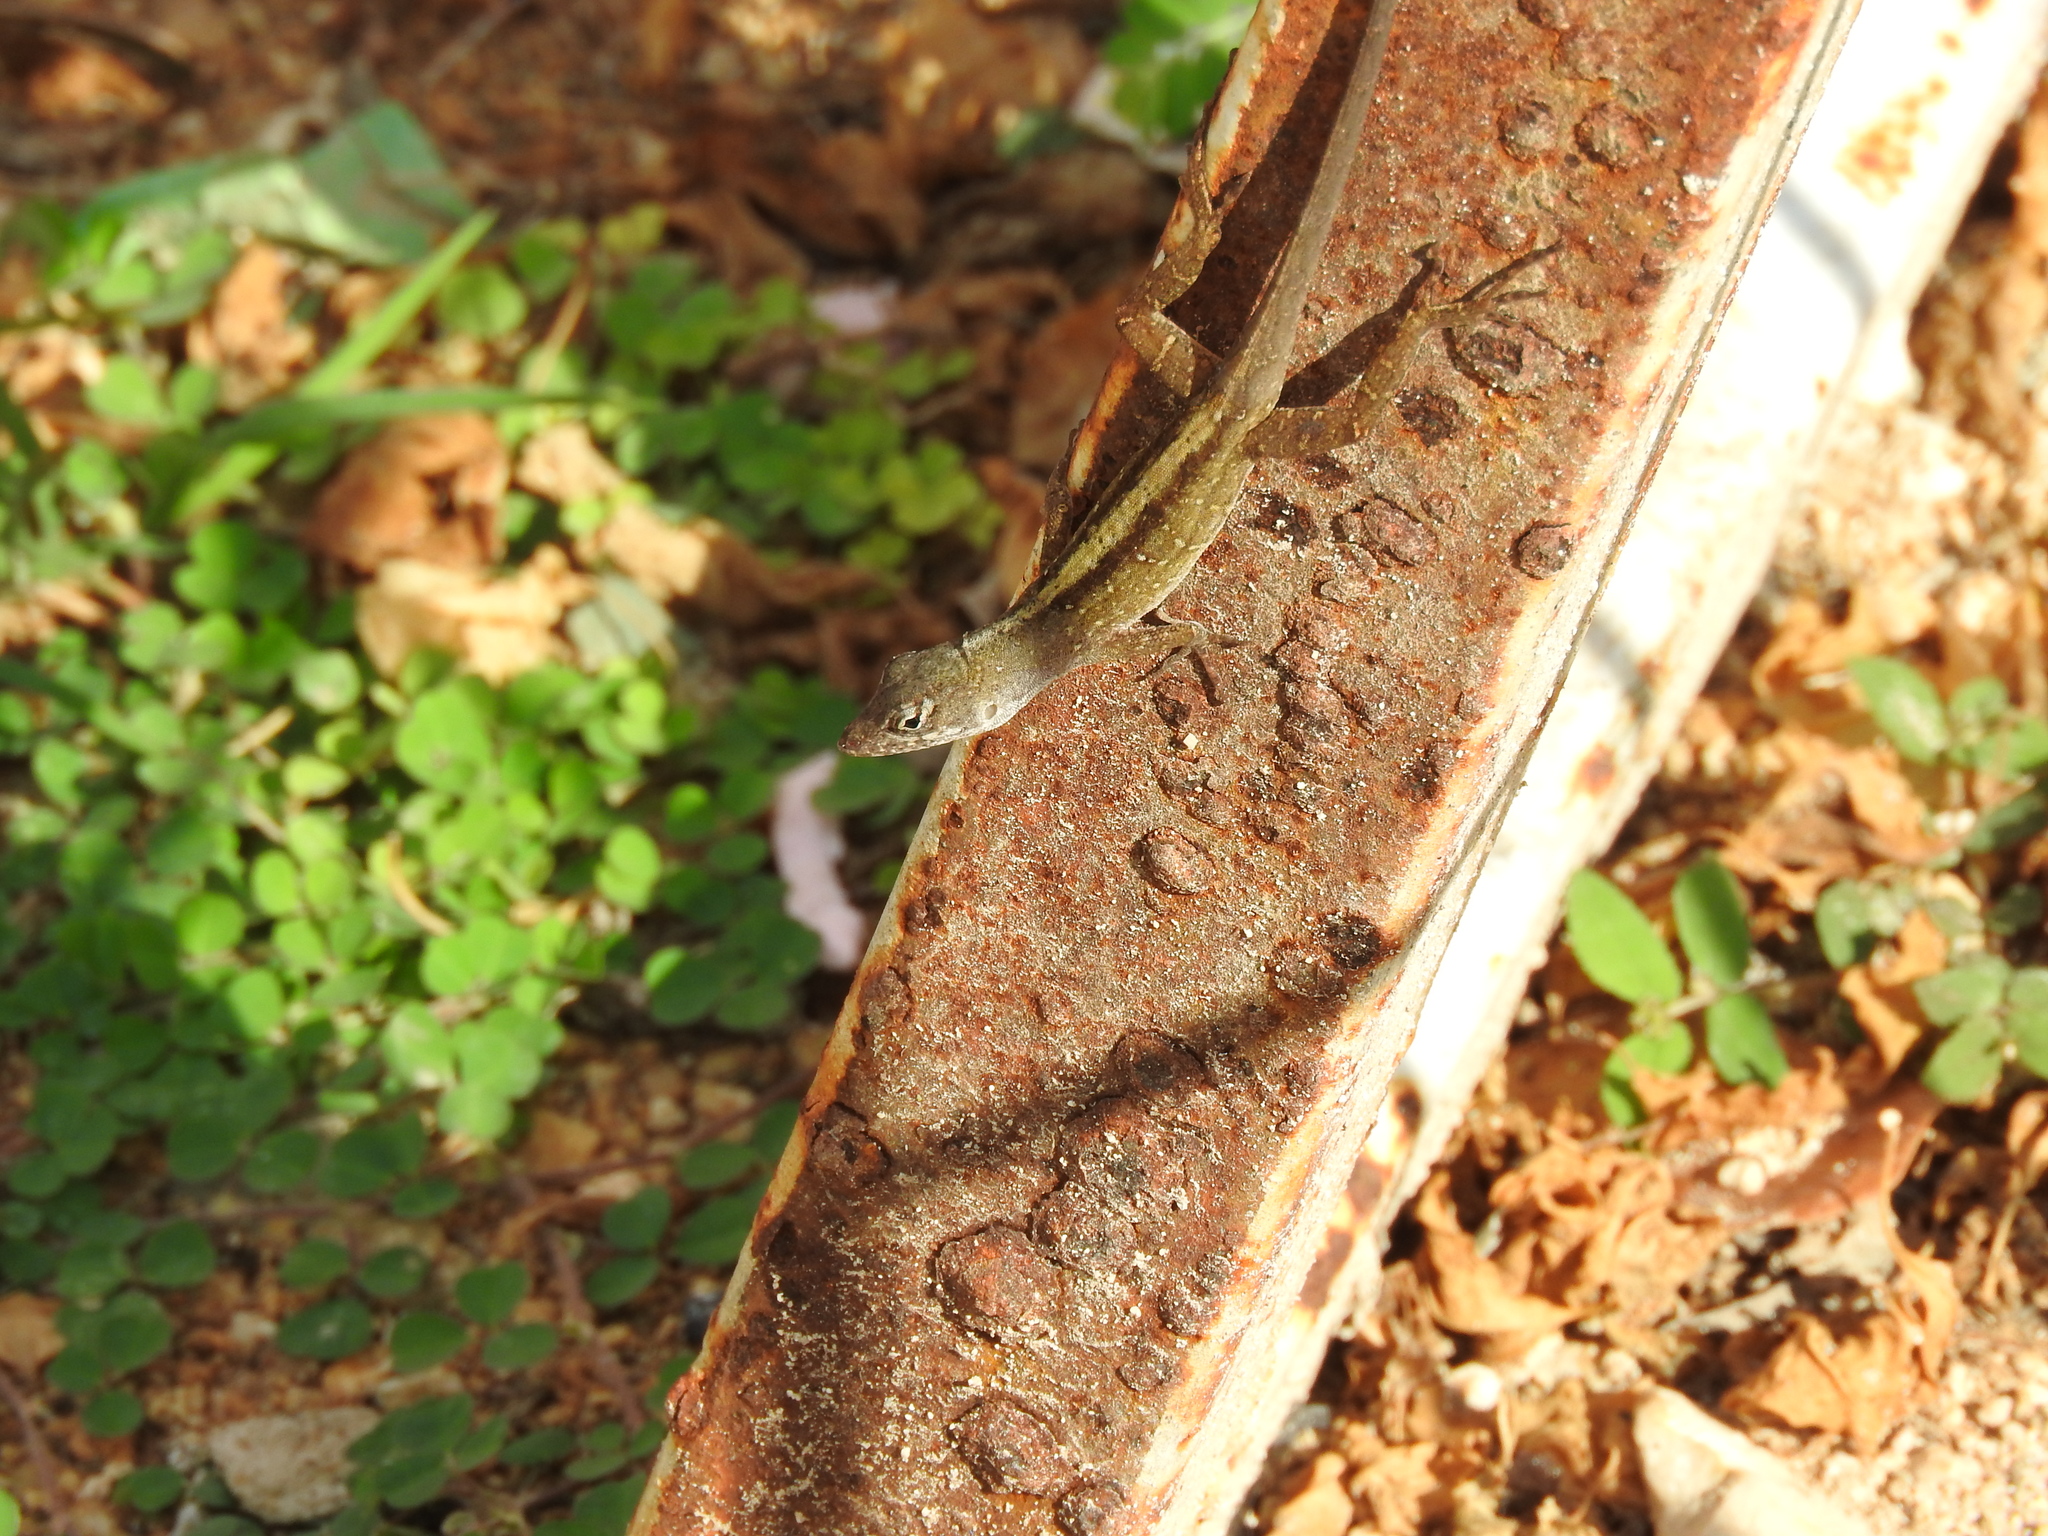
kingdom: Animalia
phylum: Chordata
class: Squamata
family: Dactyloidae
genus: Anolis
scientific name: Anolis sagrei
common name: Brown anole
